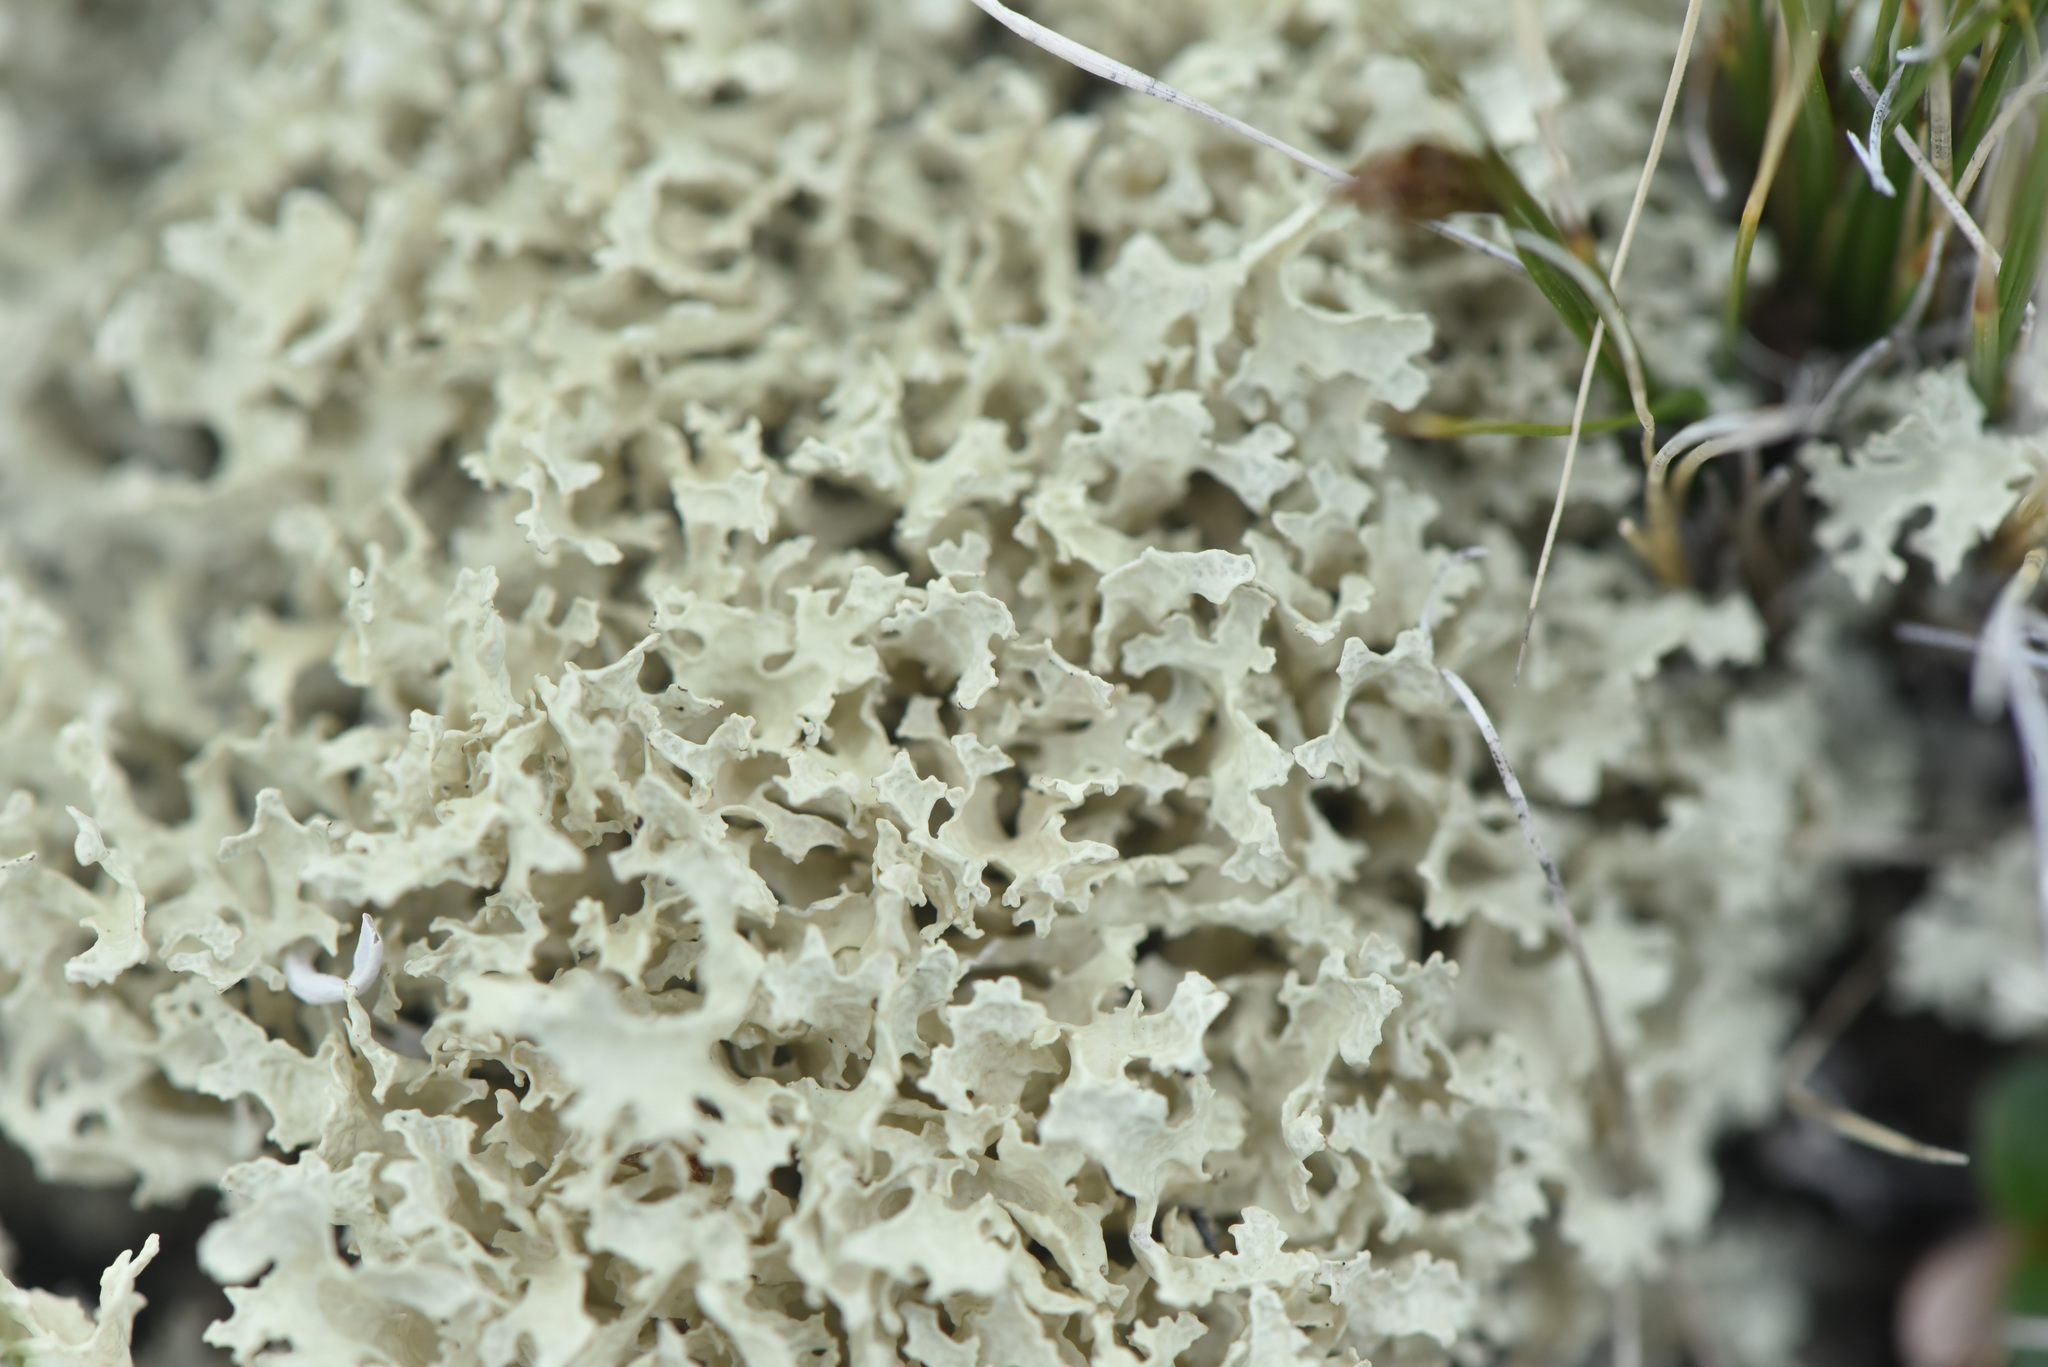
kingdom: Fungi
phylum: Ascomycota
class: Lecanoromycetes
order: Lecanorales
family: Parmeliaceae
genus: Nephromopsis
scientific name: Nephromopsis nivalis
